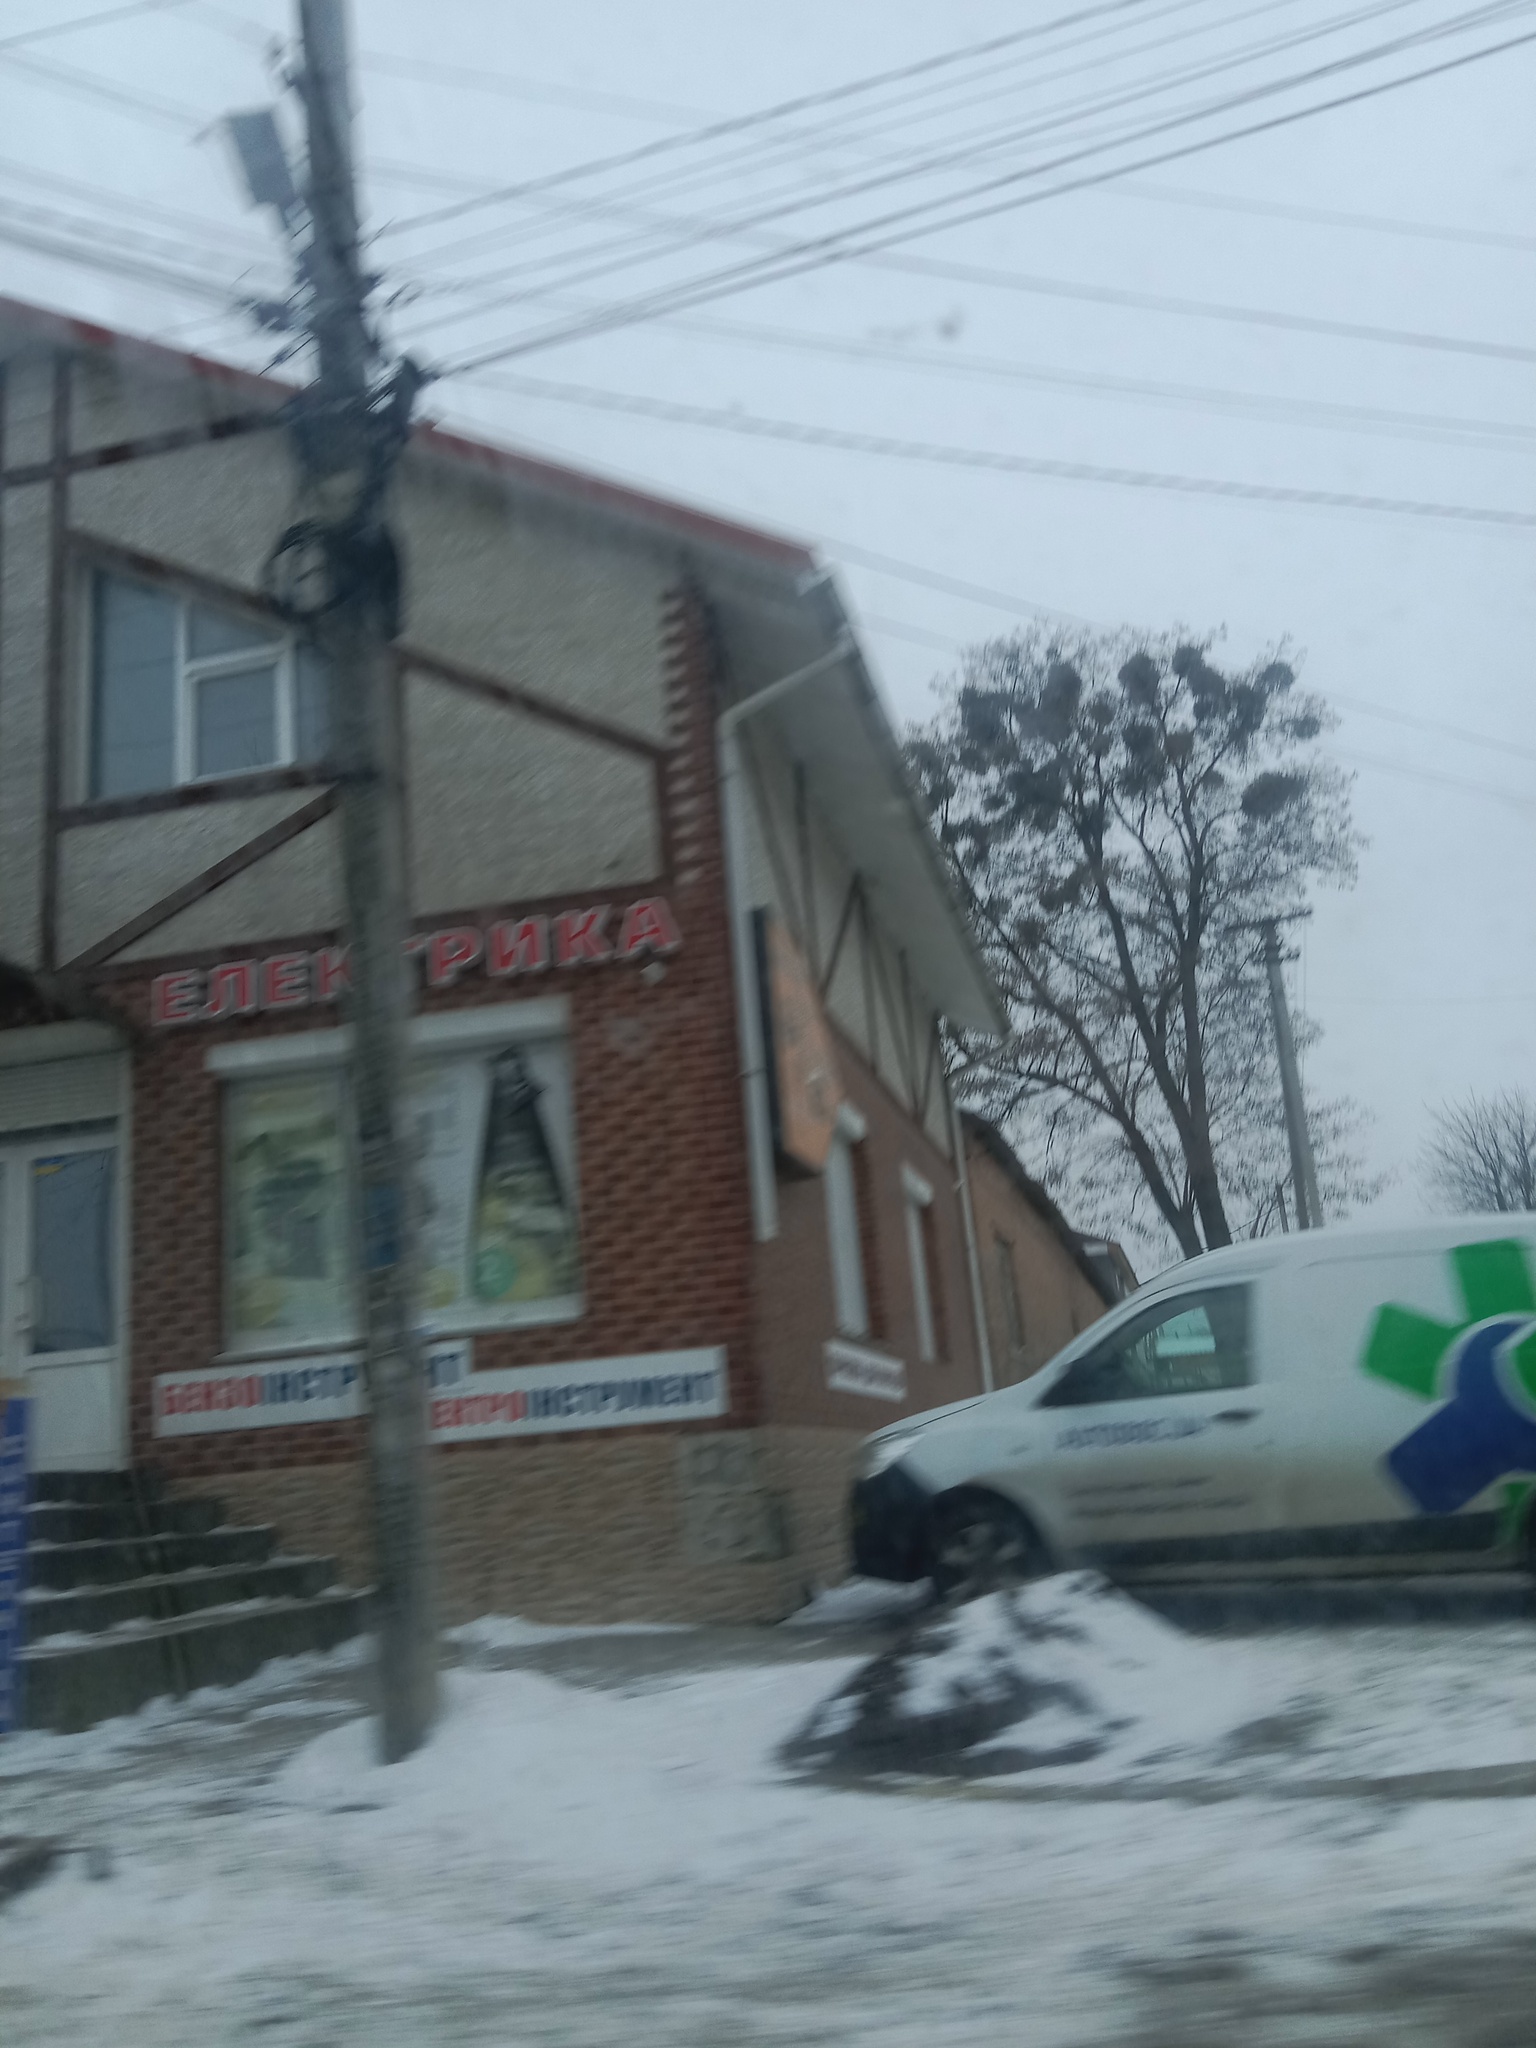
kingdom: Plantae
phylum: Tracheophyta
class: Magnoliopsida
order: Santalales
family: Viscaceae
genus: Viscum
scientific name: Viscum album
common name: Mistletoe
